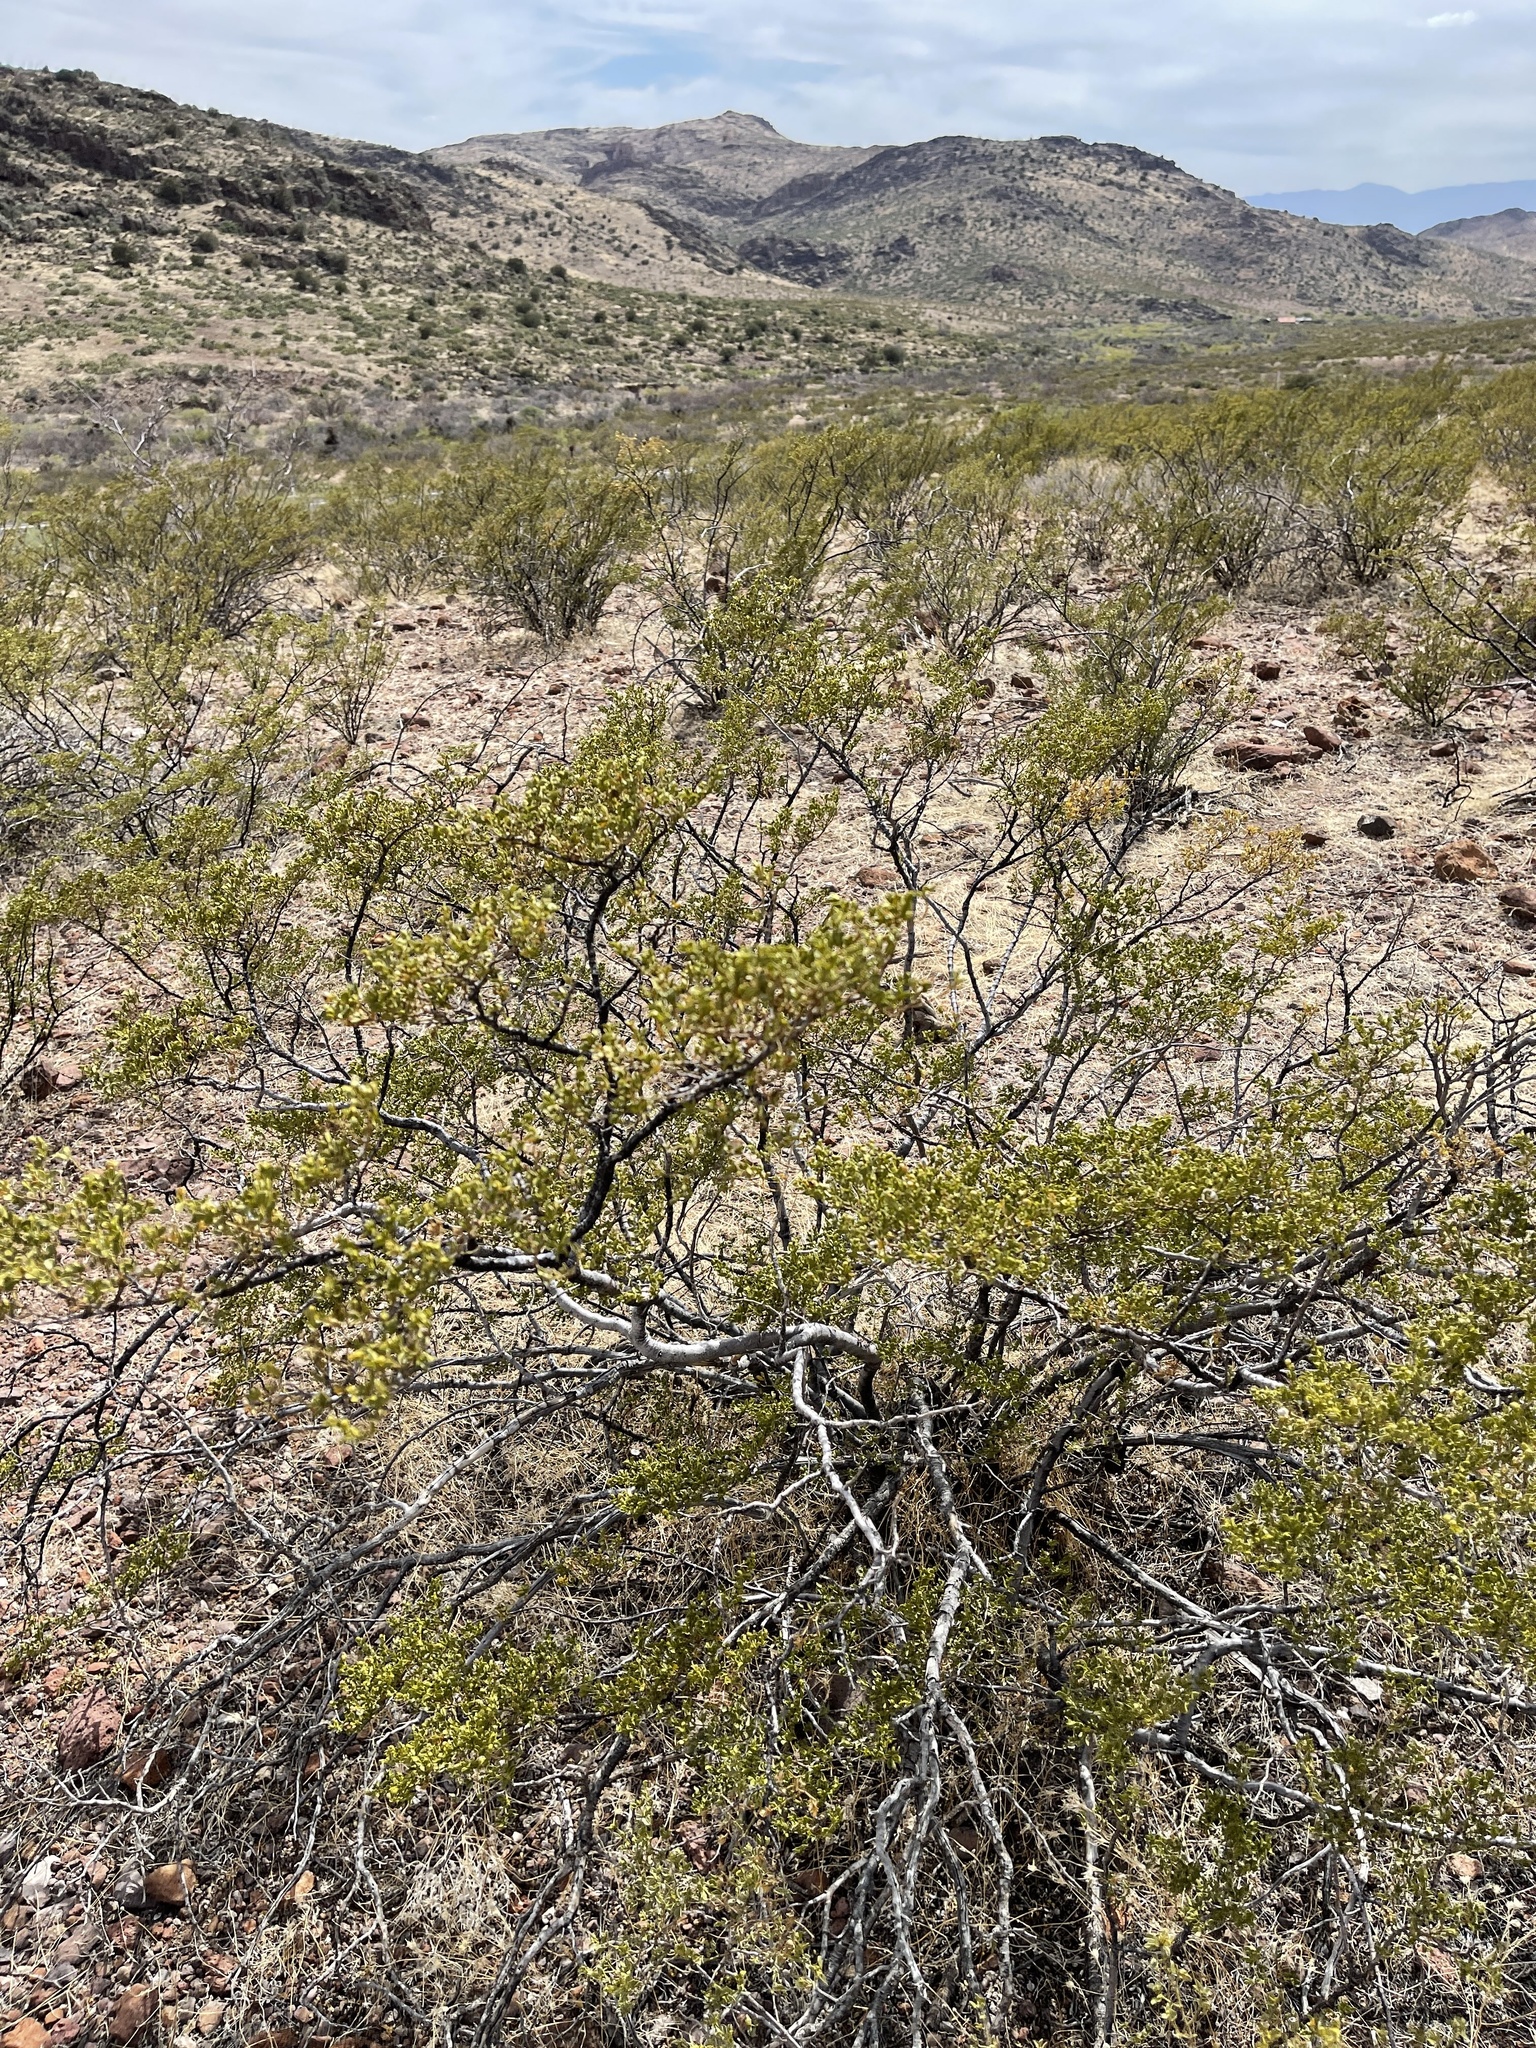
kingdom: Plantae
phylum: Tracheophyta
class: Magnoliopsida
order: Zygophyllales
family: Zygophyllaceae
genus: Larrea
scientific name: Larrea tridentata
